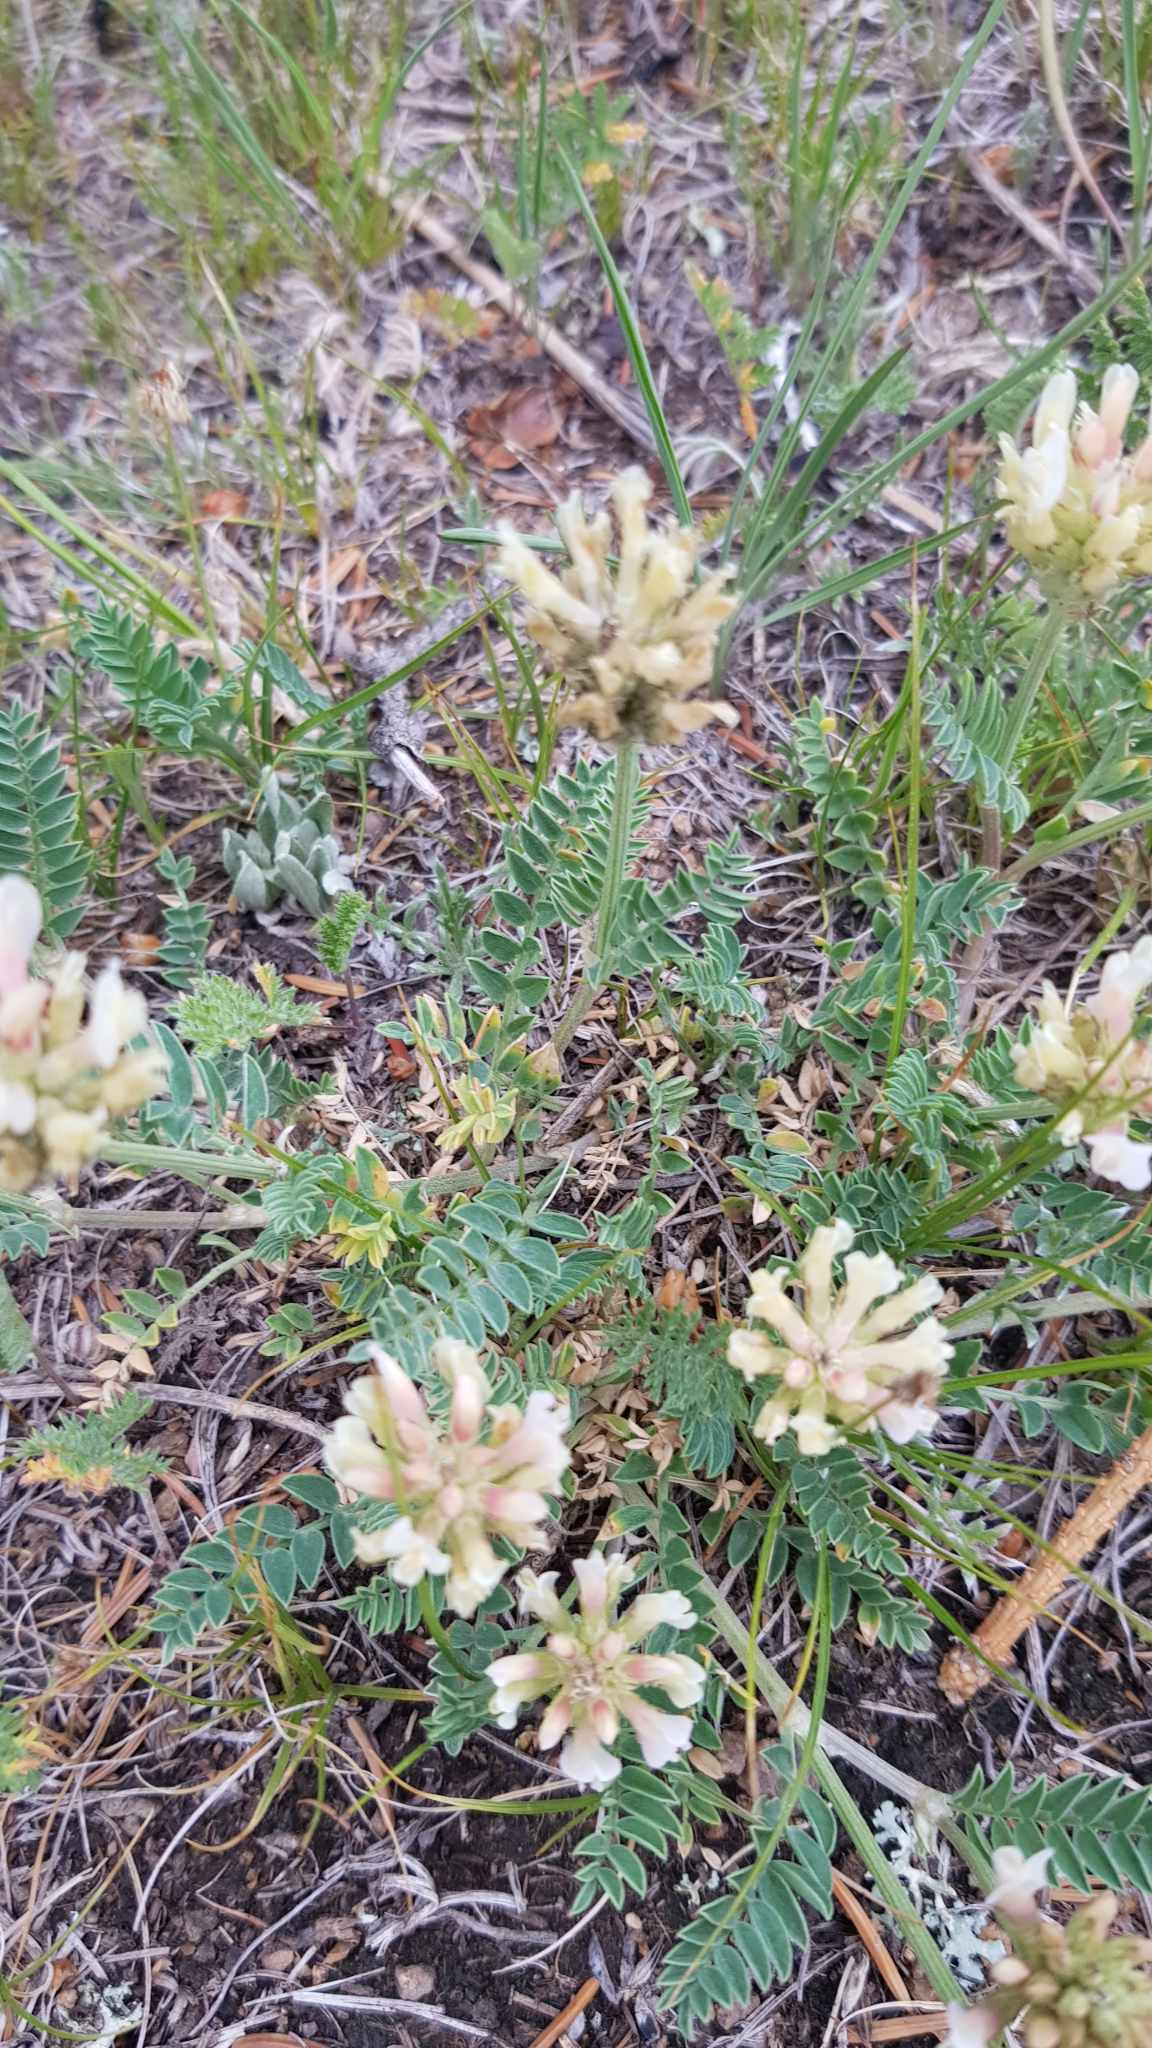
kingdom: Plantae
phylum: Tracheophyta
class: Magnoliopsida
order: Fabales
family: Fabaceae
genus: Astragalus
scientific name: Astragalus laxmannii
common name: Laxmann's milk-vetch
